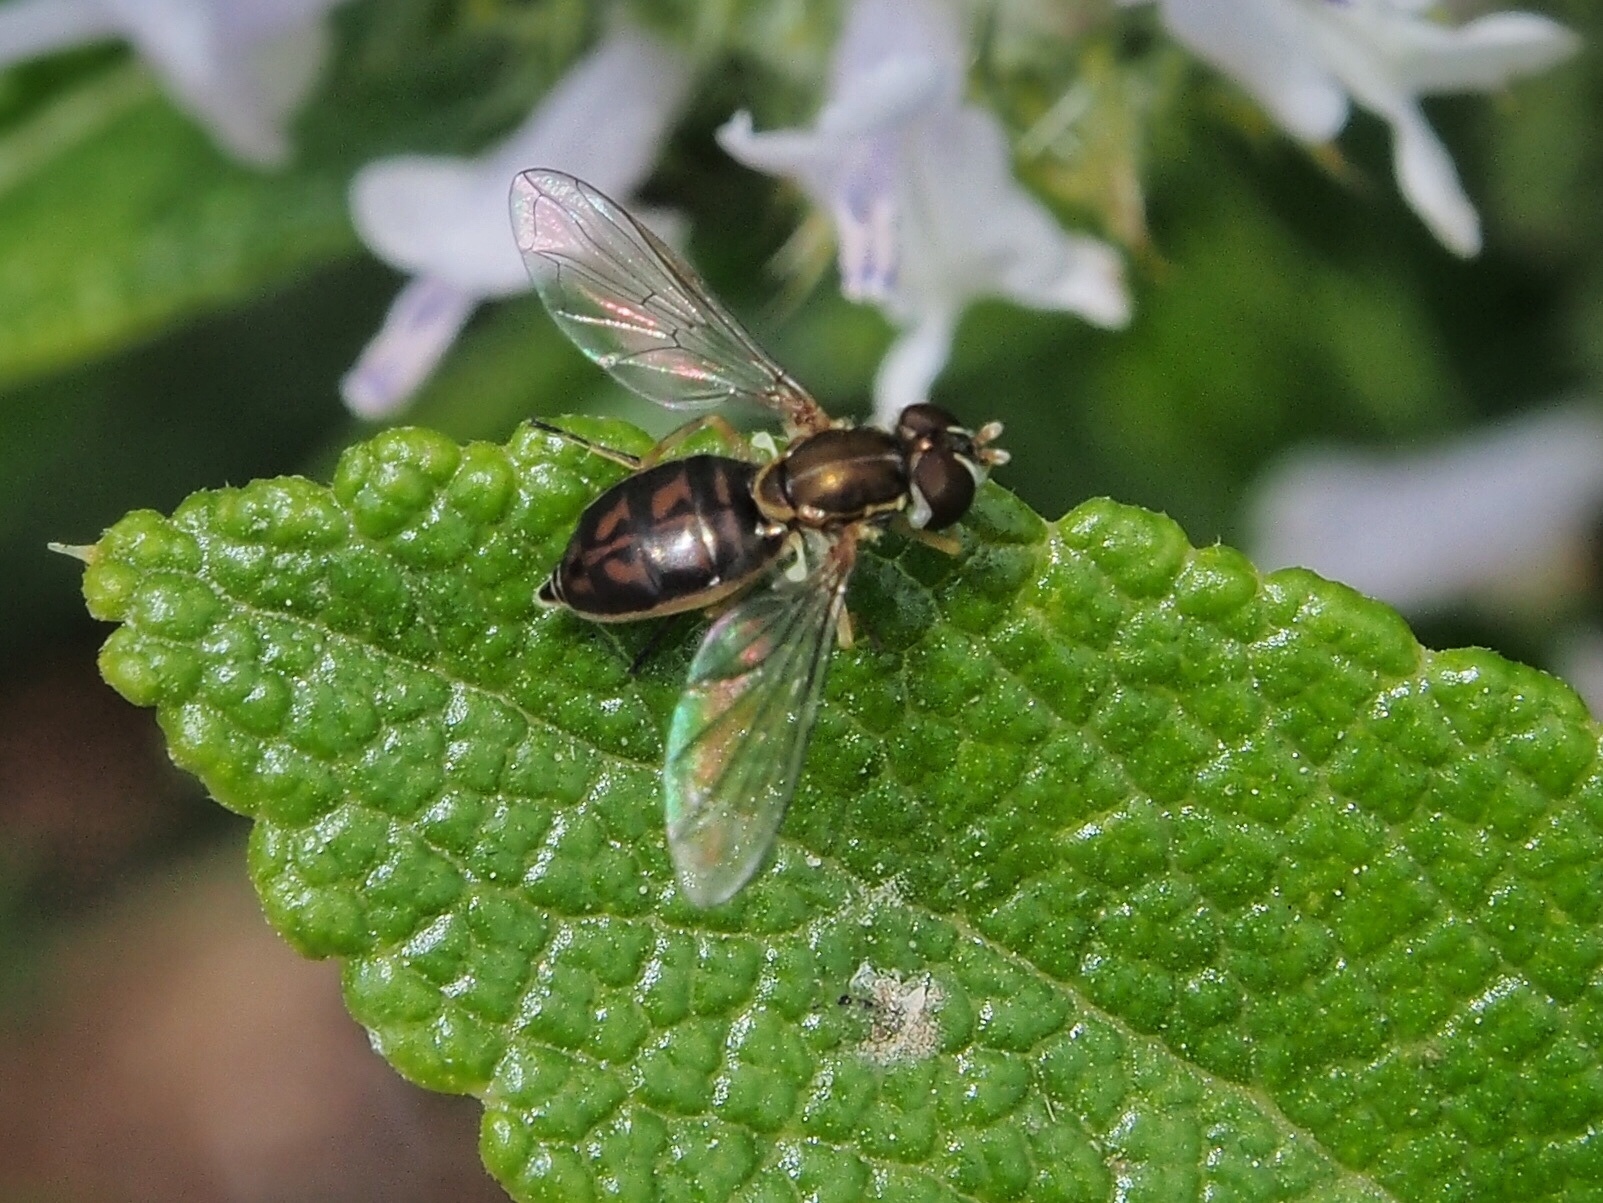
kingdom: Animalia
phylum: Arthropoda
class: Insecta
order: Diptera
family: Syrphidae
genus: Toxomerus
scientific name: Toxomerus marginatus
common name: Syrphid fly
